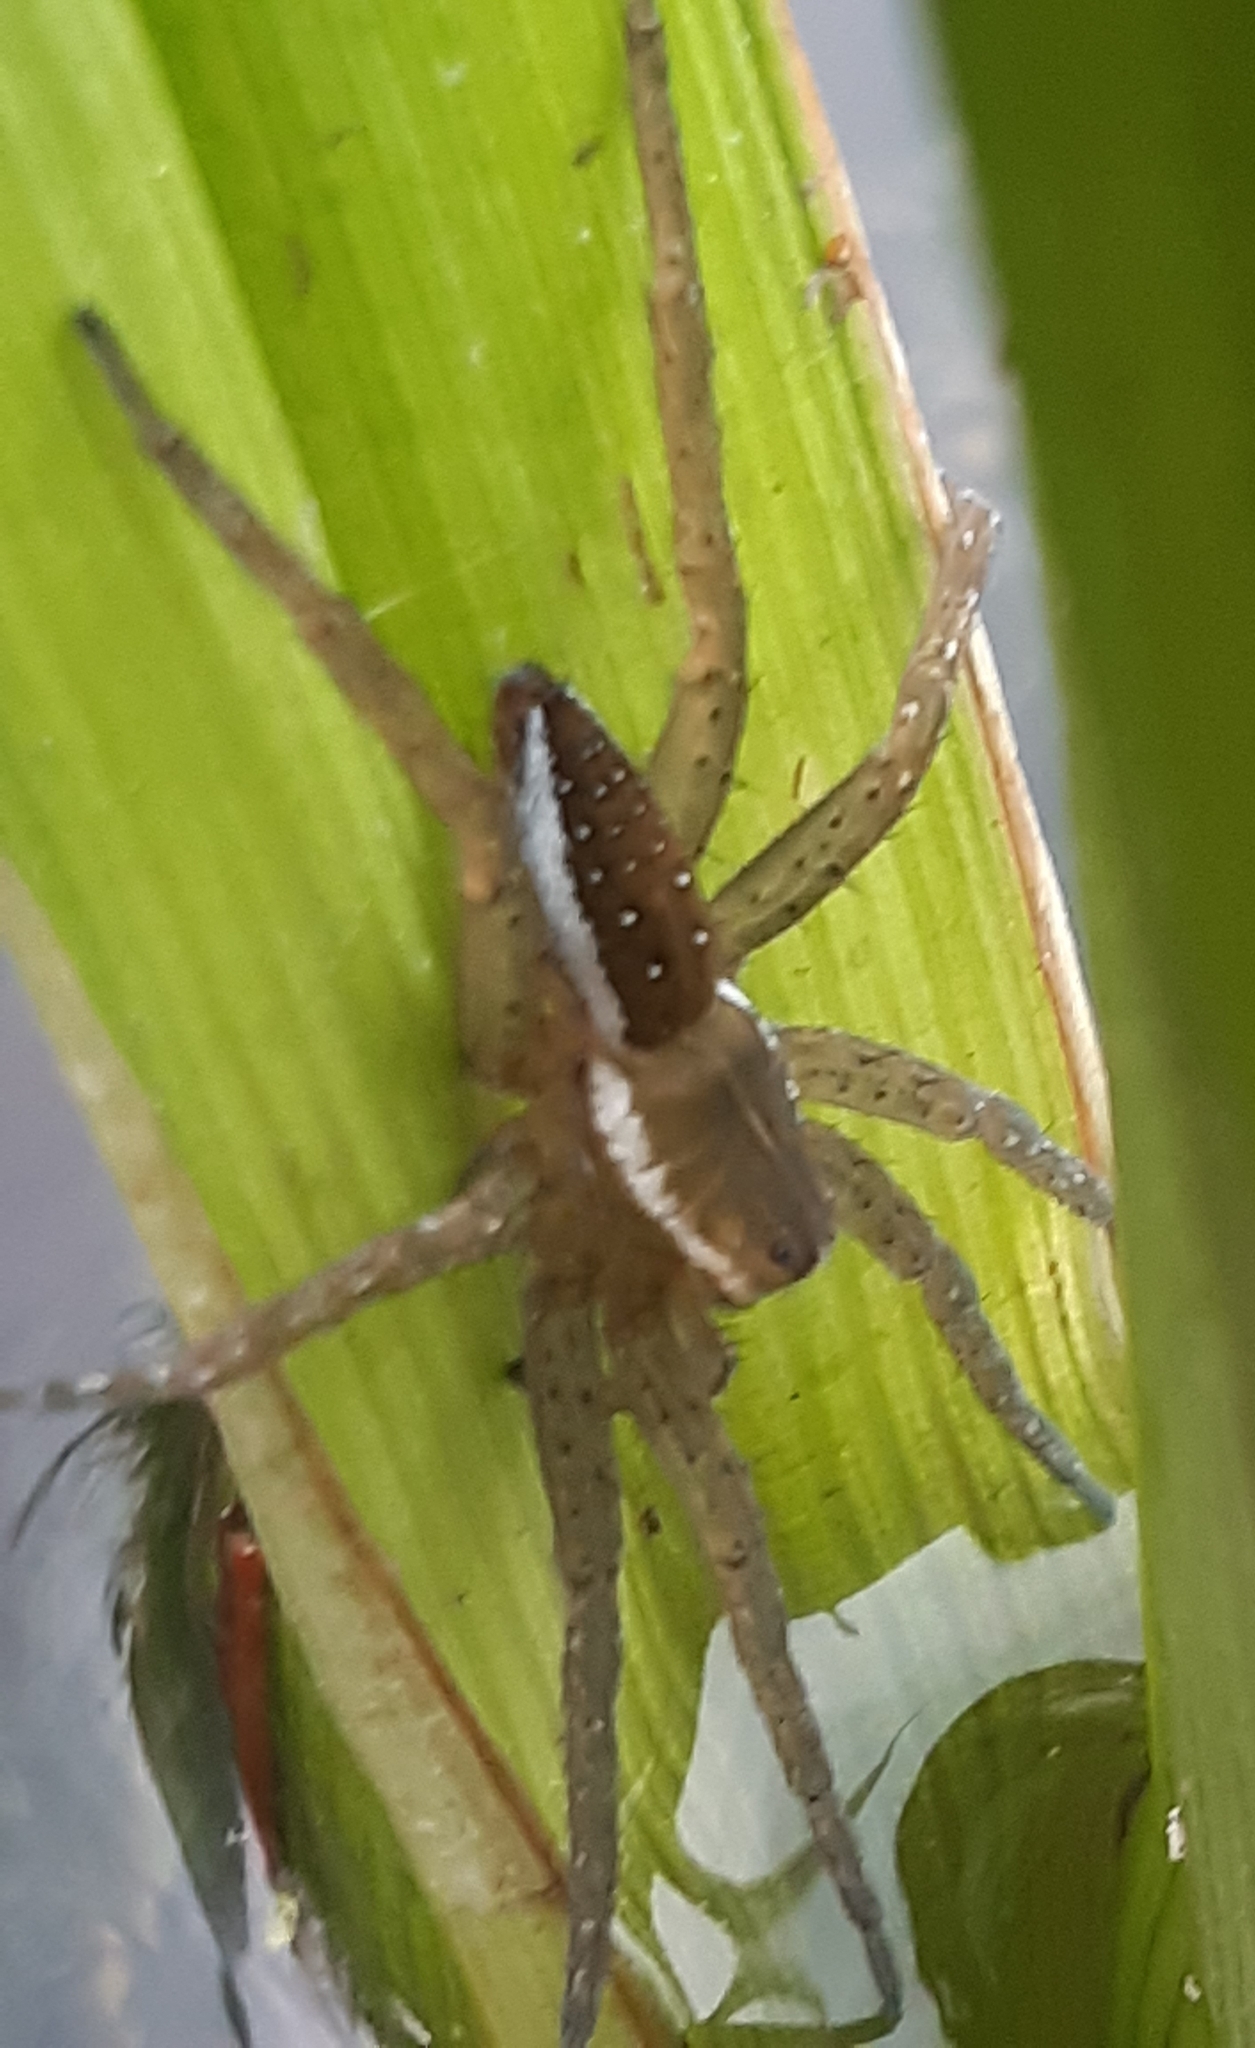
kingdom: Animalia
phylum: Arthropoda
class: Arachnida
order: Araneae
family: Pisauridae
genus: Dolomedes
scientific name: Dolomedes fimbriatus
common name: Raft spider
